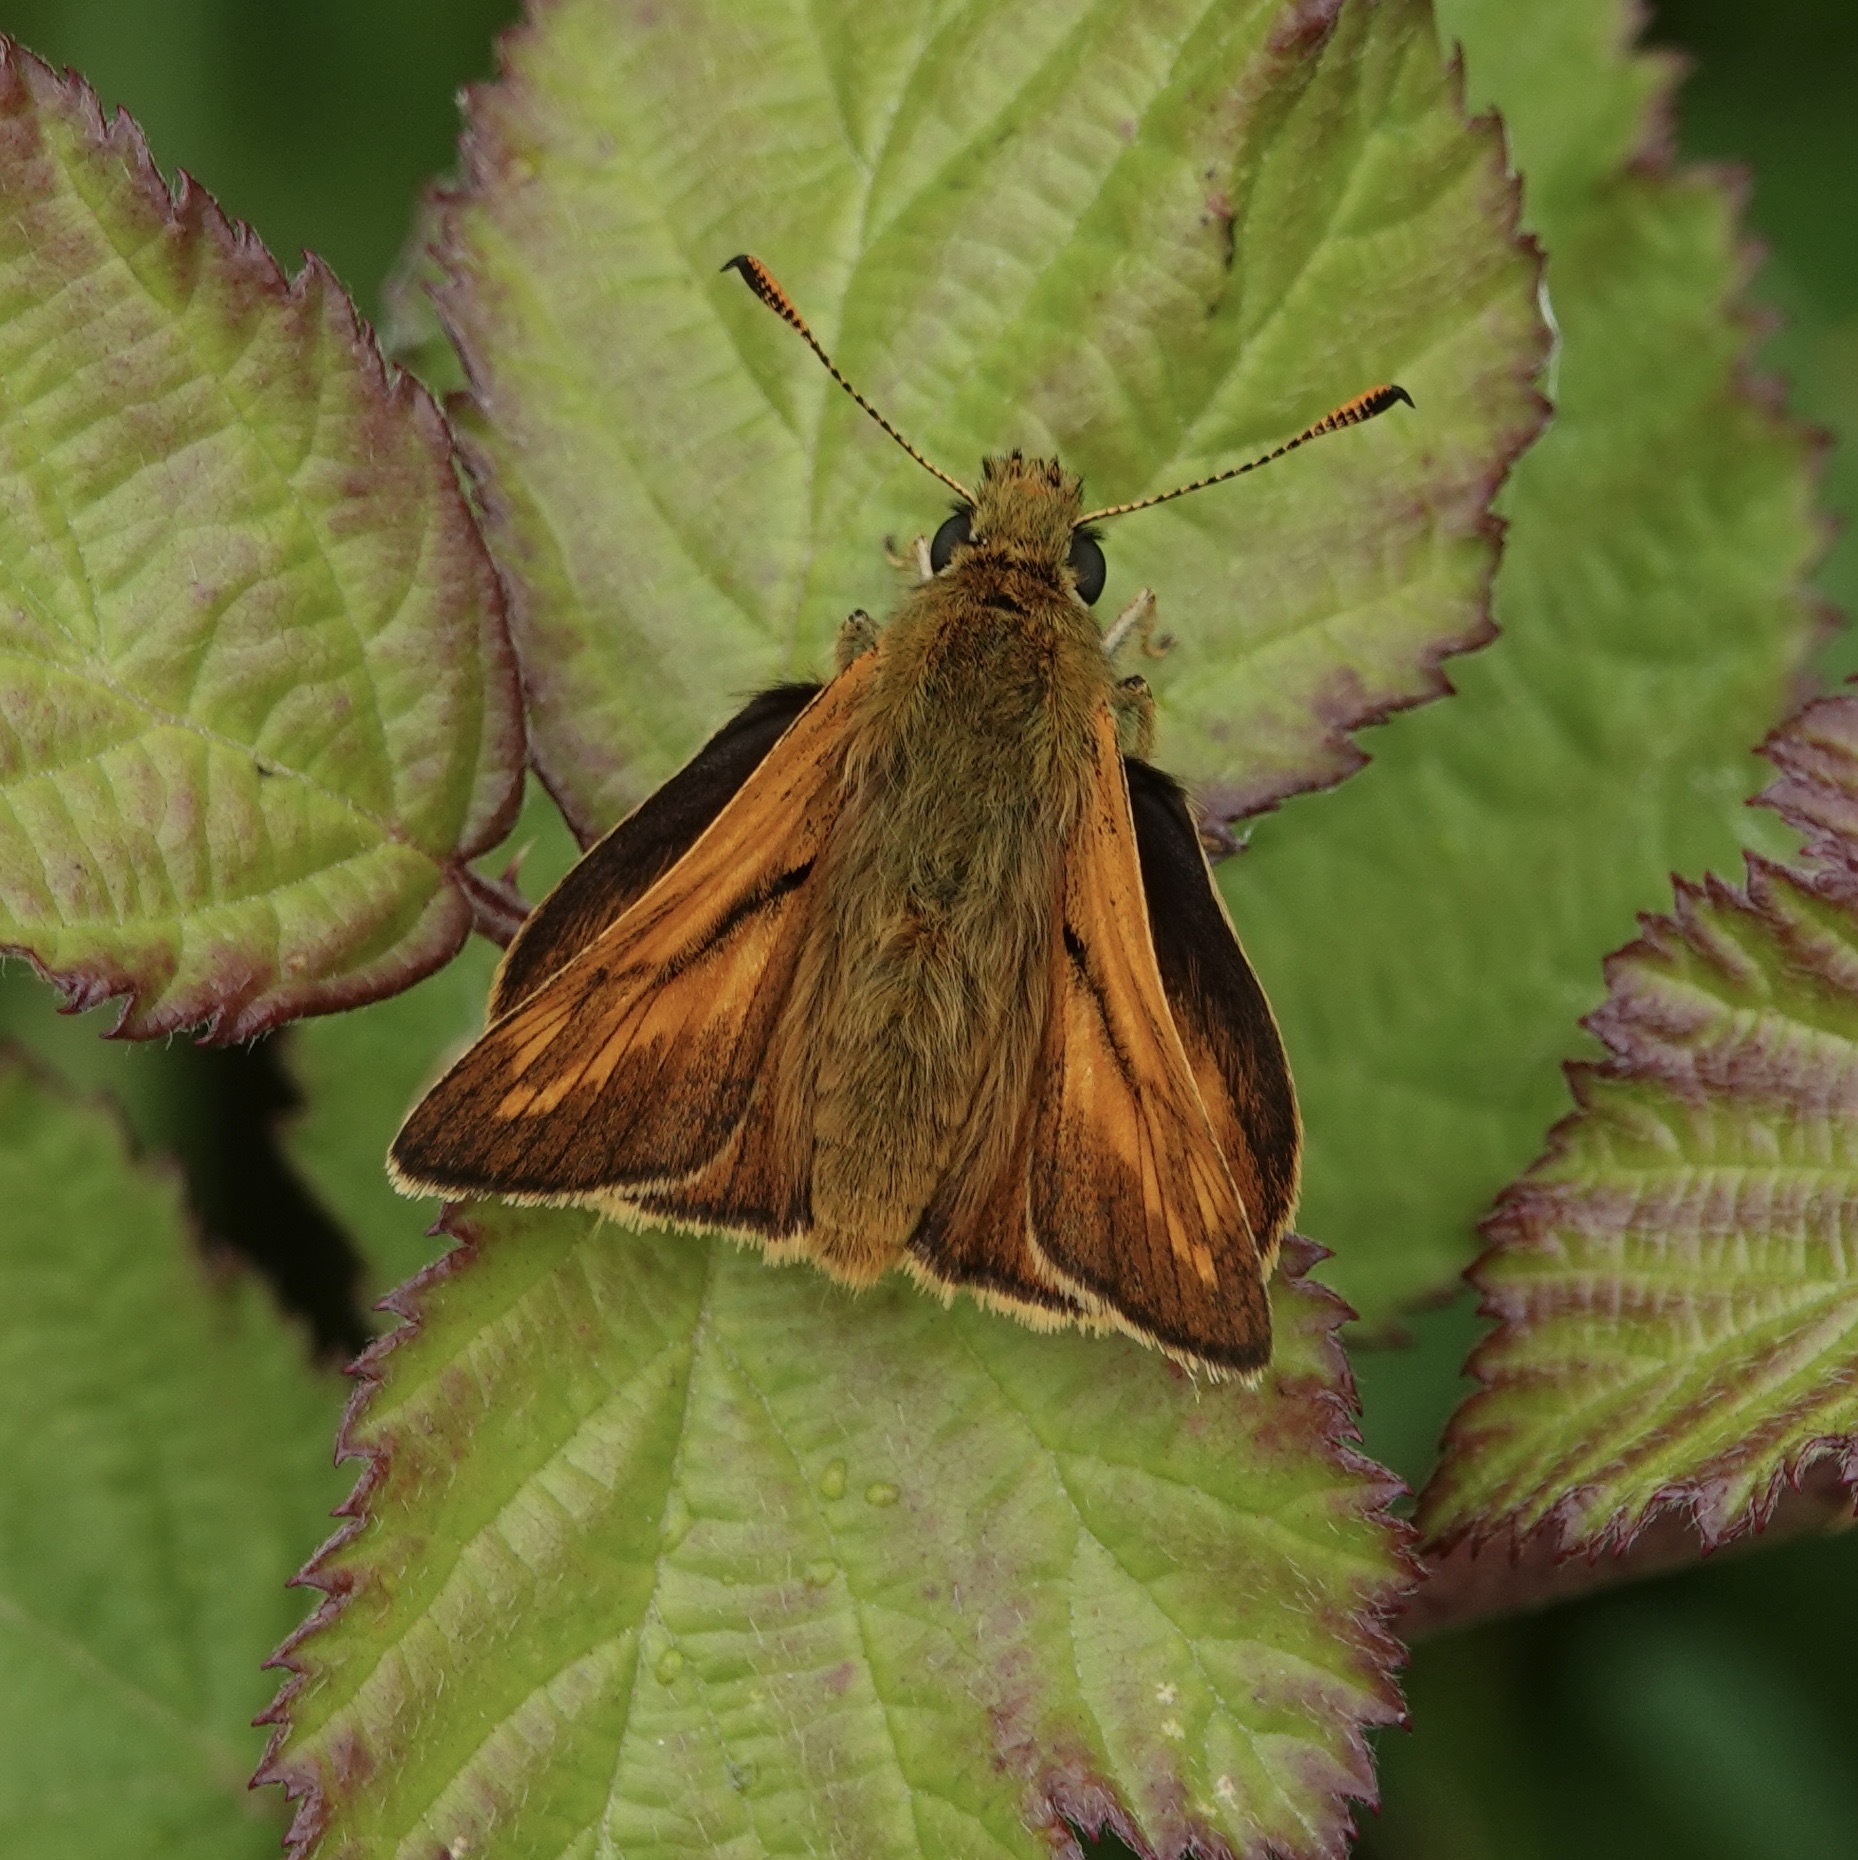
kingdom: Animalia
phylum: Arthropoda
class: Insecta
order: Lepidoptera
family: Hesperiidae
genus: Ochlodes
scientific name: Ochlodes venata
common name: Large skipper
